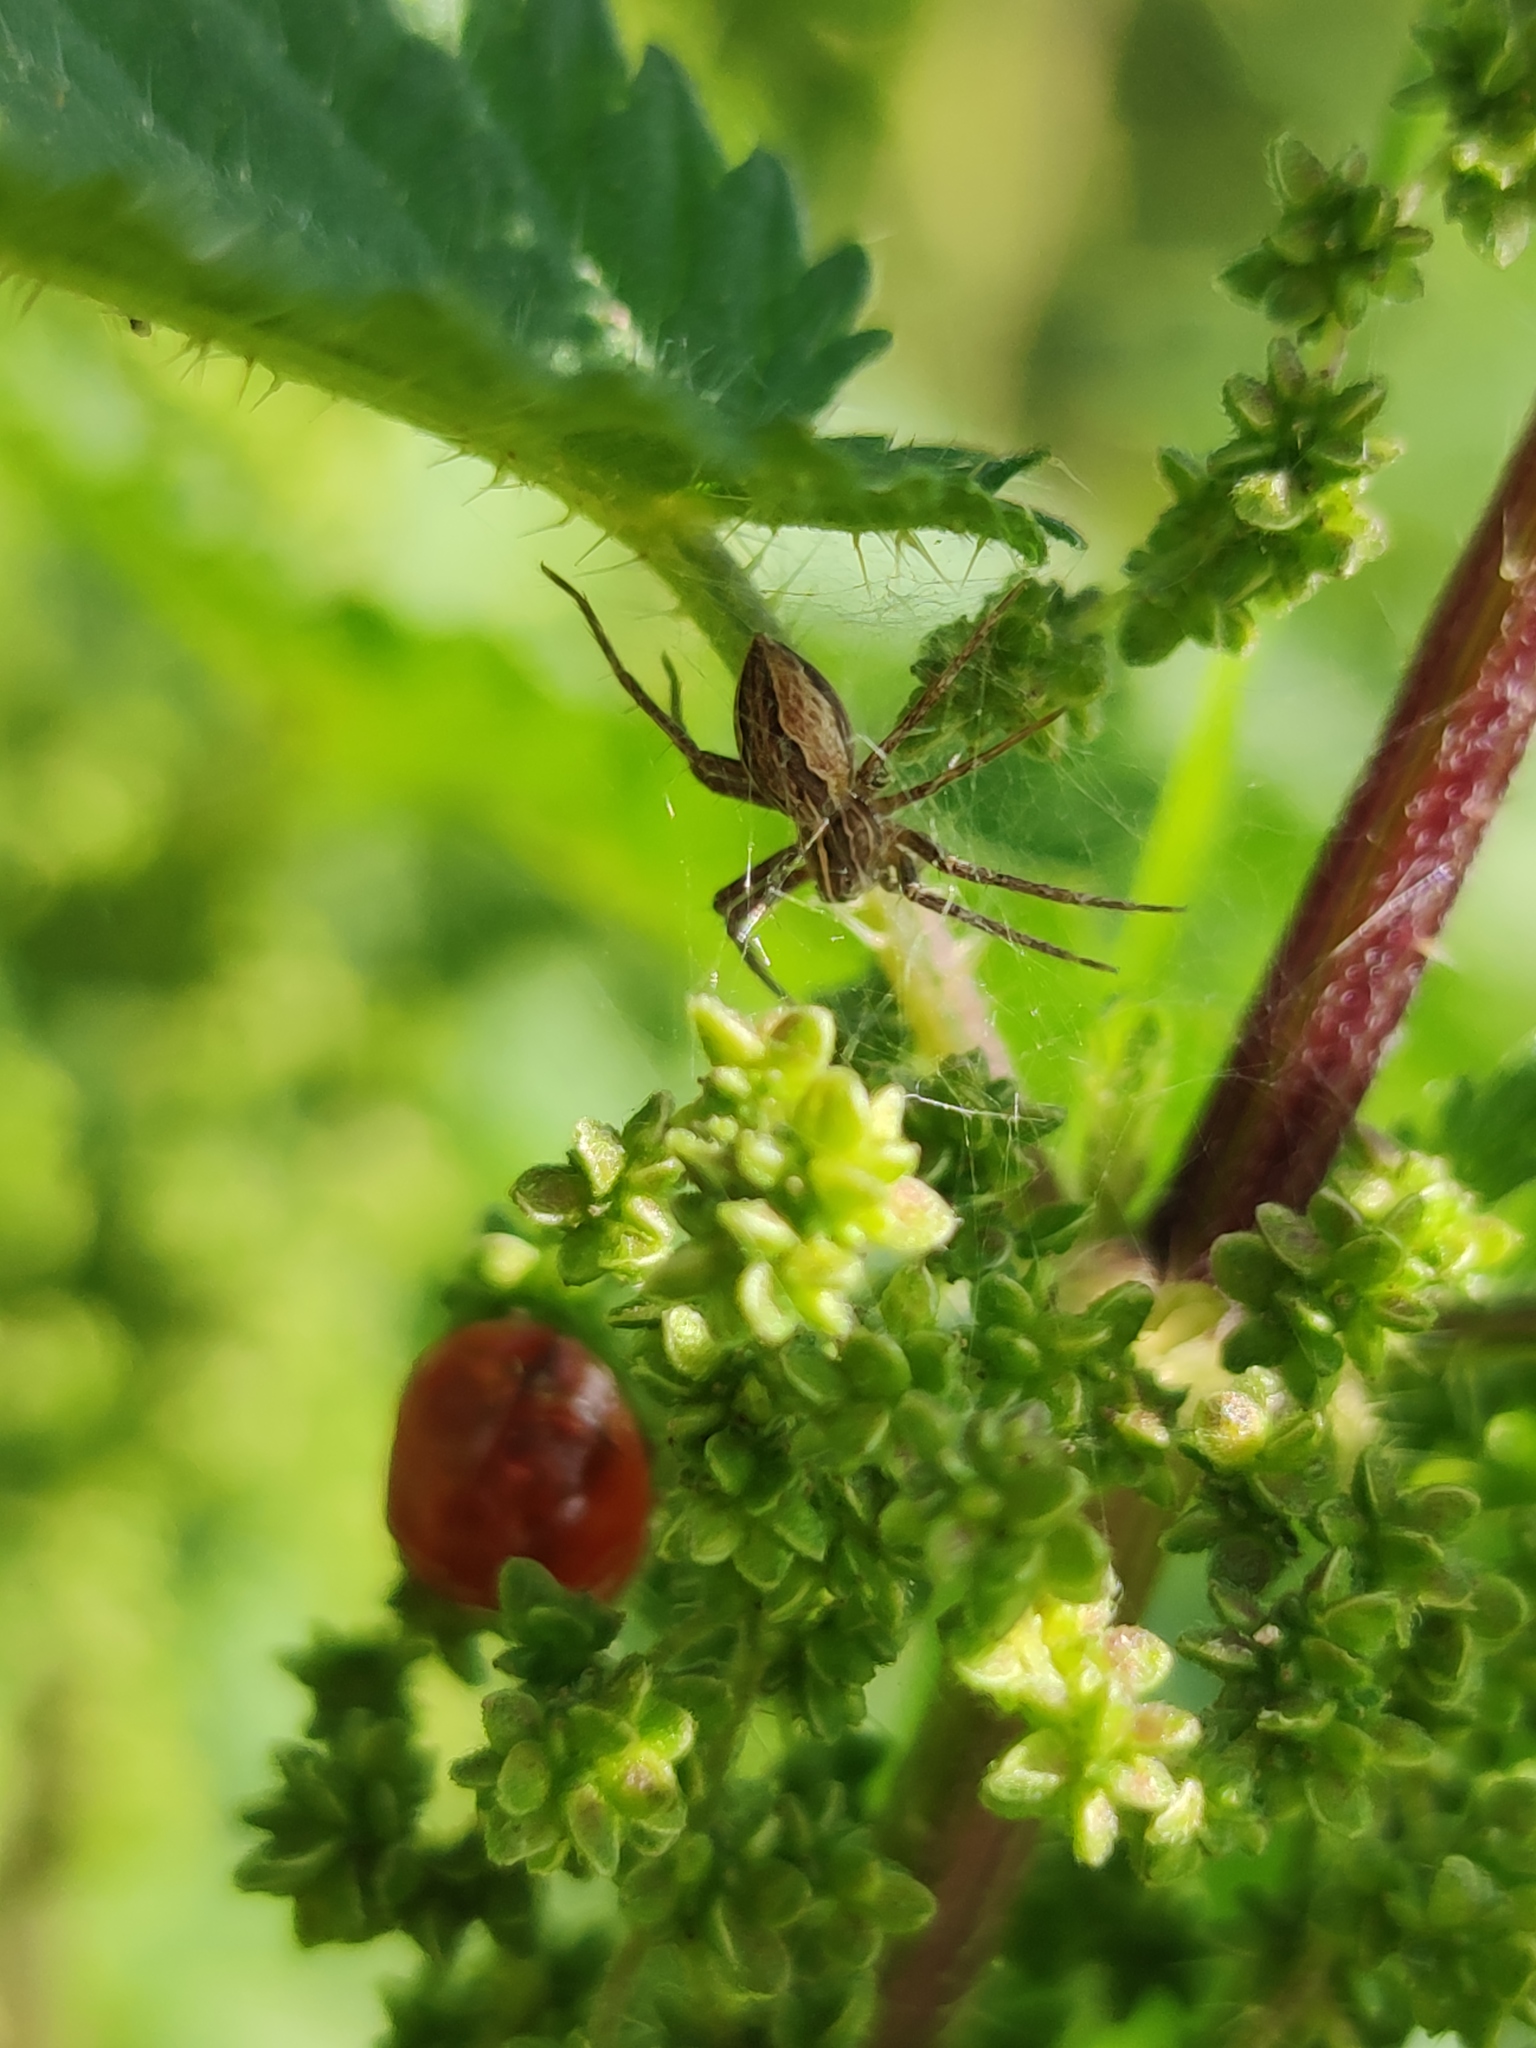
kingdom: Animalia
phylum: Arthropoda
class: Arachnida
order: Araneae
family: Pisauridae
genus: Pisaura
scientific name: Pisaura mirabilis
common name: Tent spider
